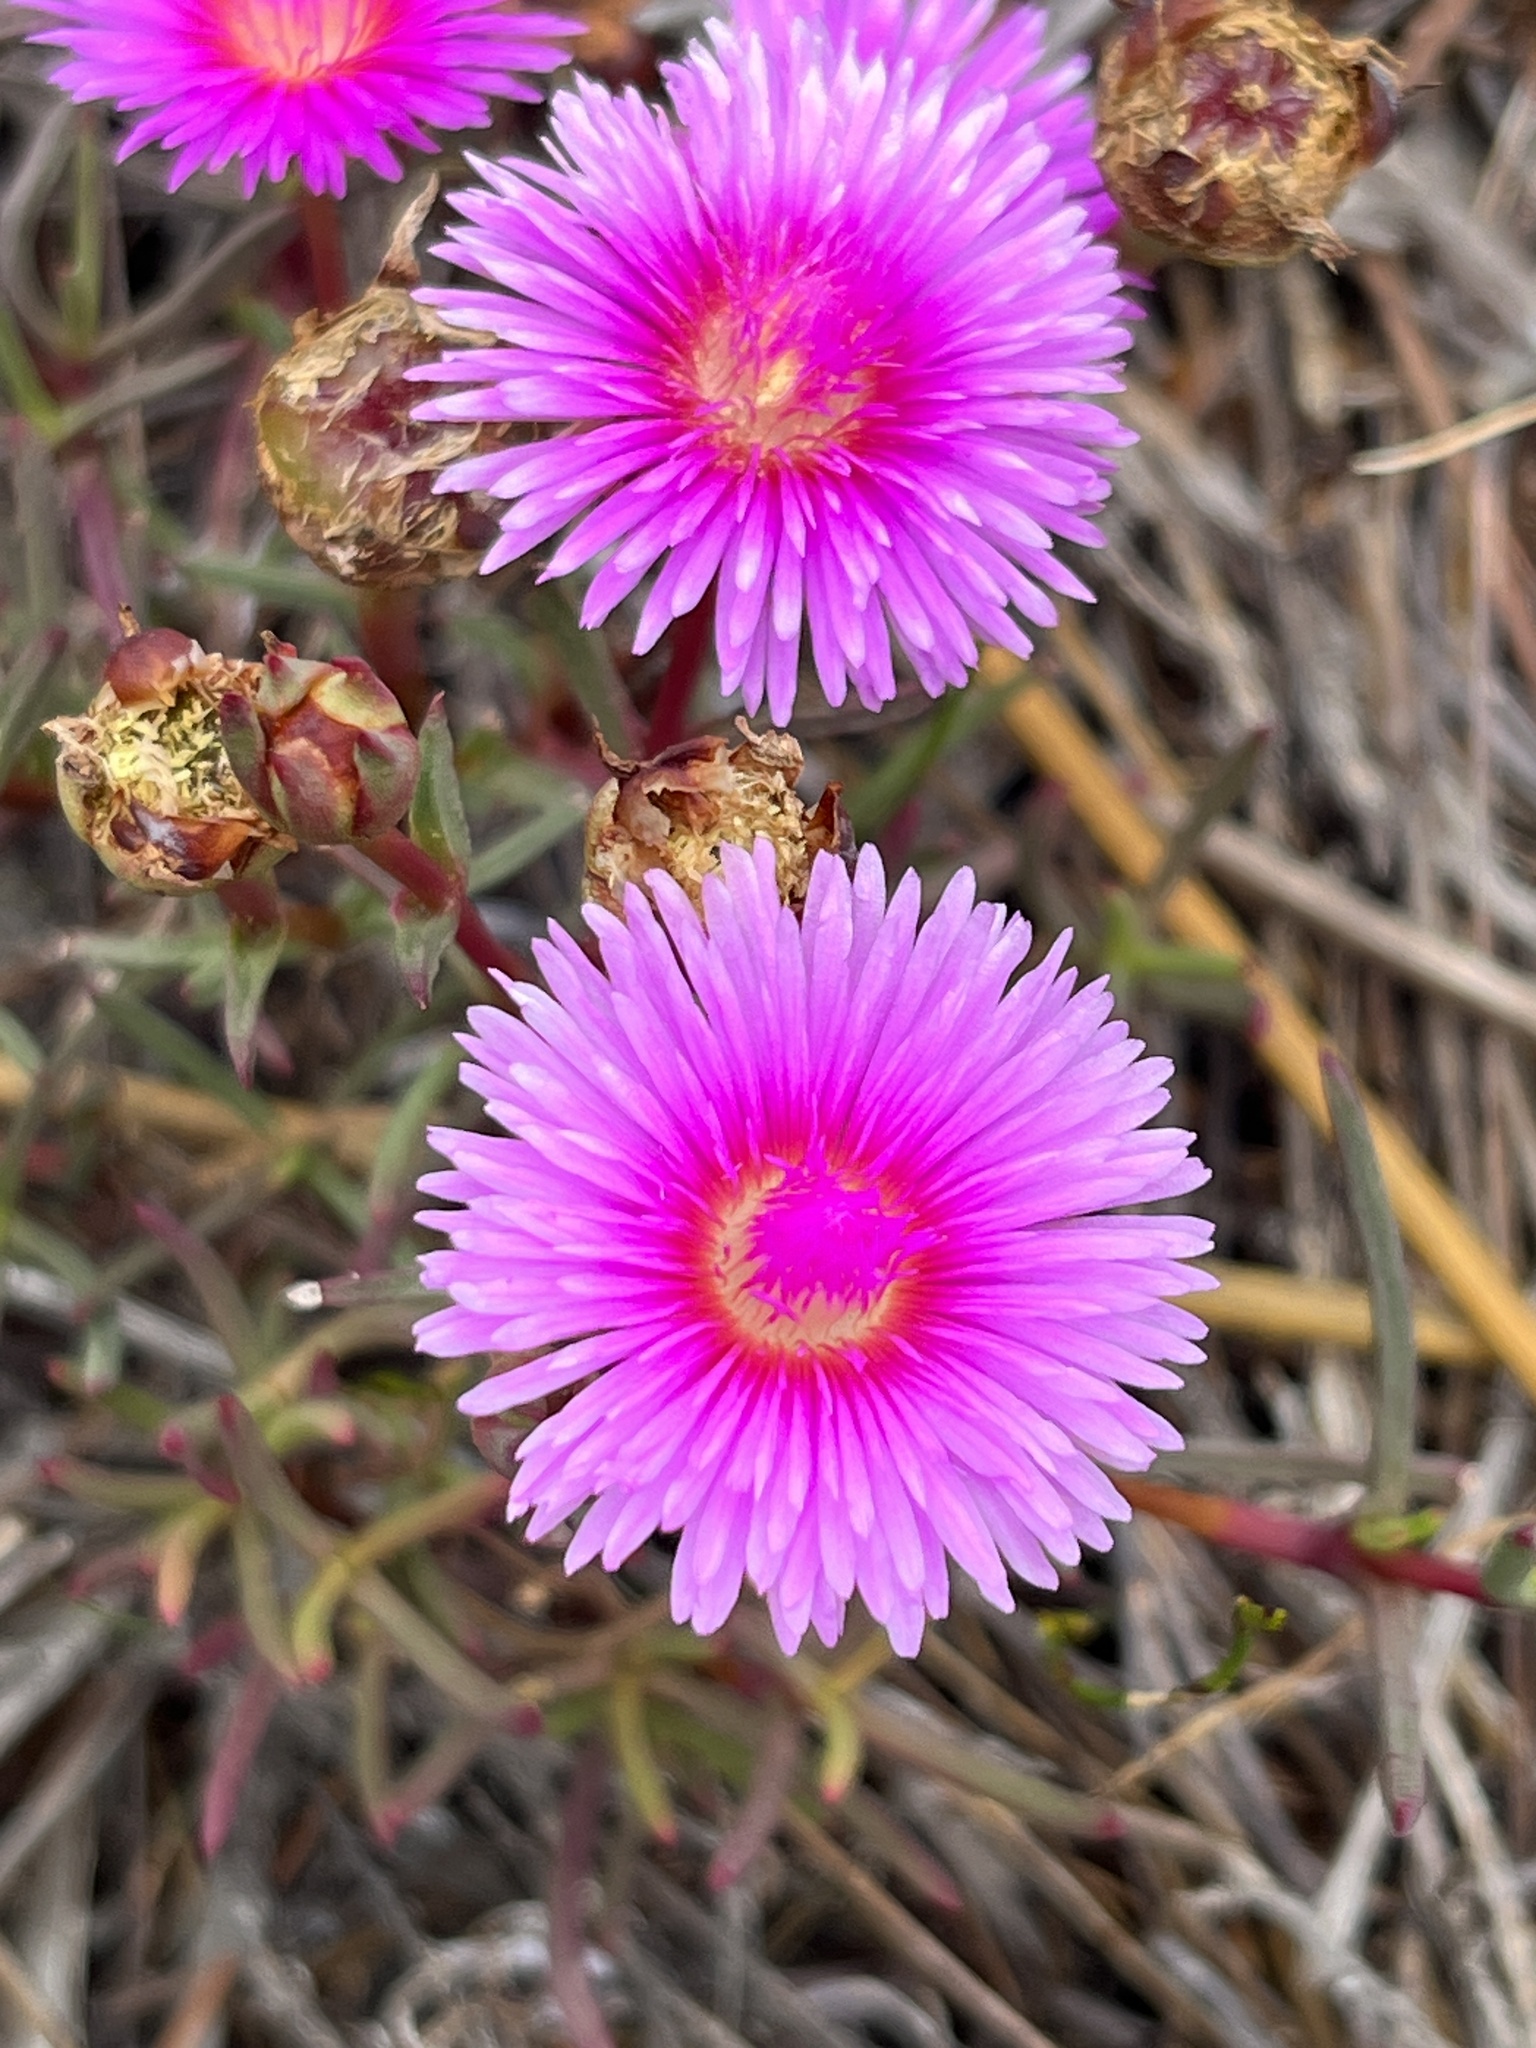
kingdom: Plantae
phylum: Tracheophyta
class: Magnoliopsida
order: Caryophyllales
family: Aizoaceae
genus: Lampranthus
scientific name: Lampranthus tenuifolius
